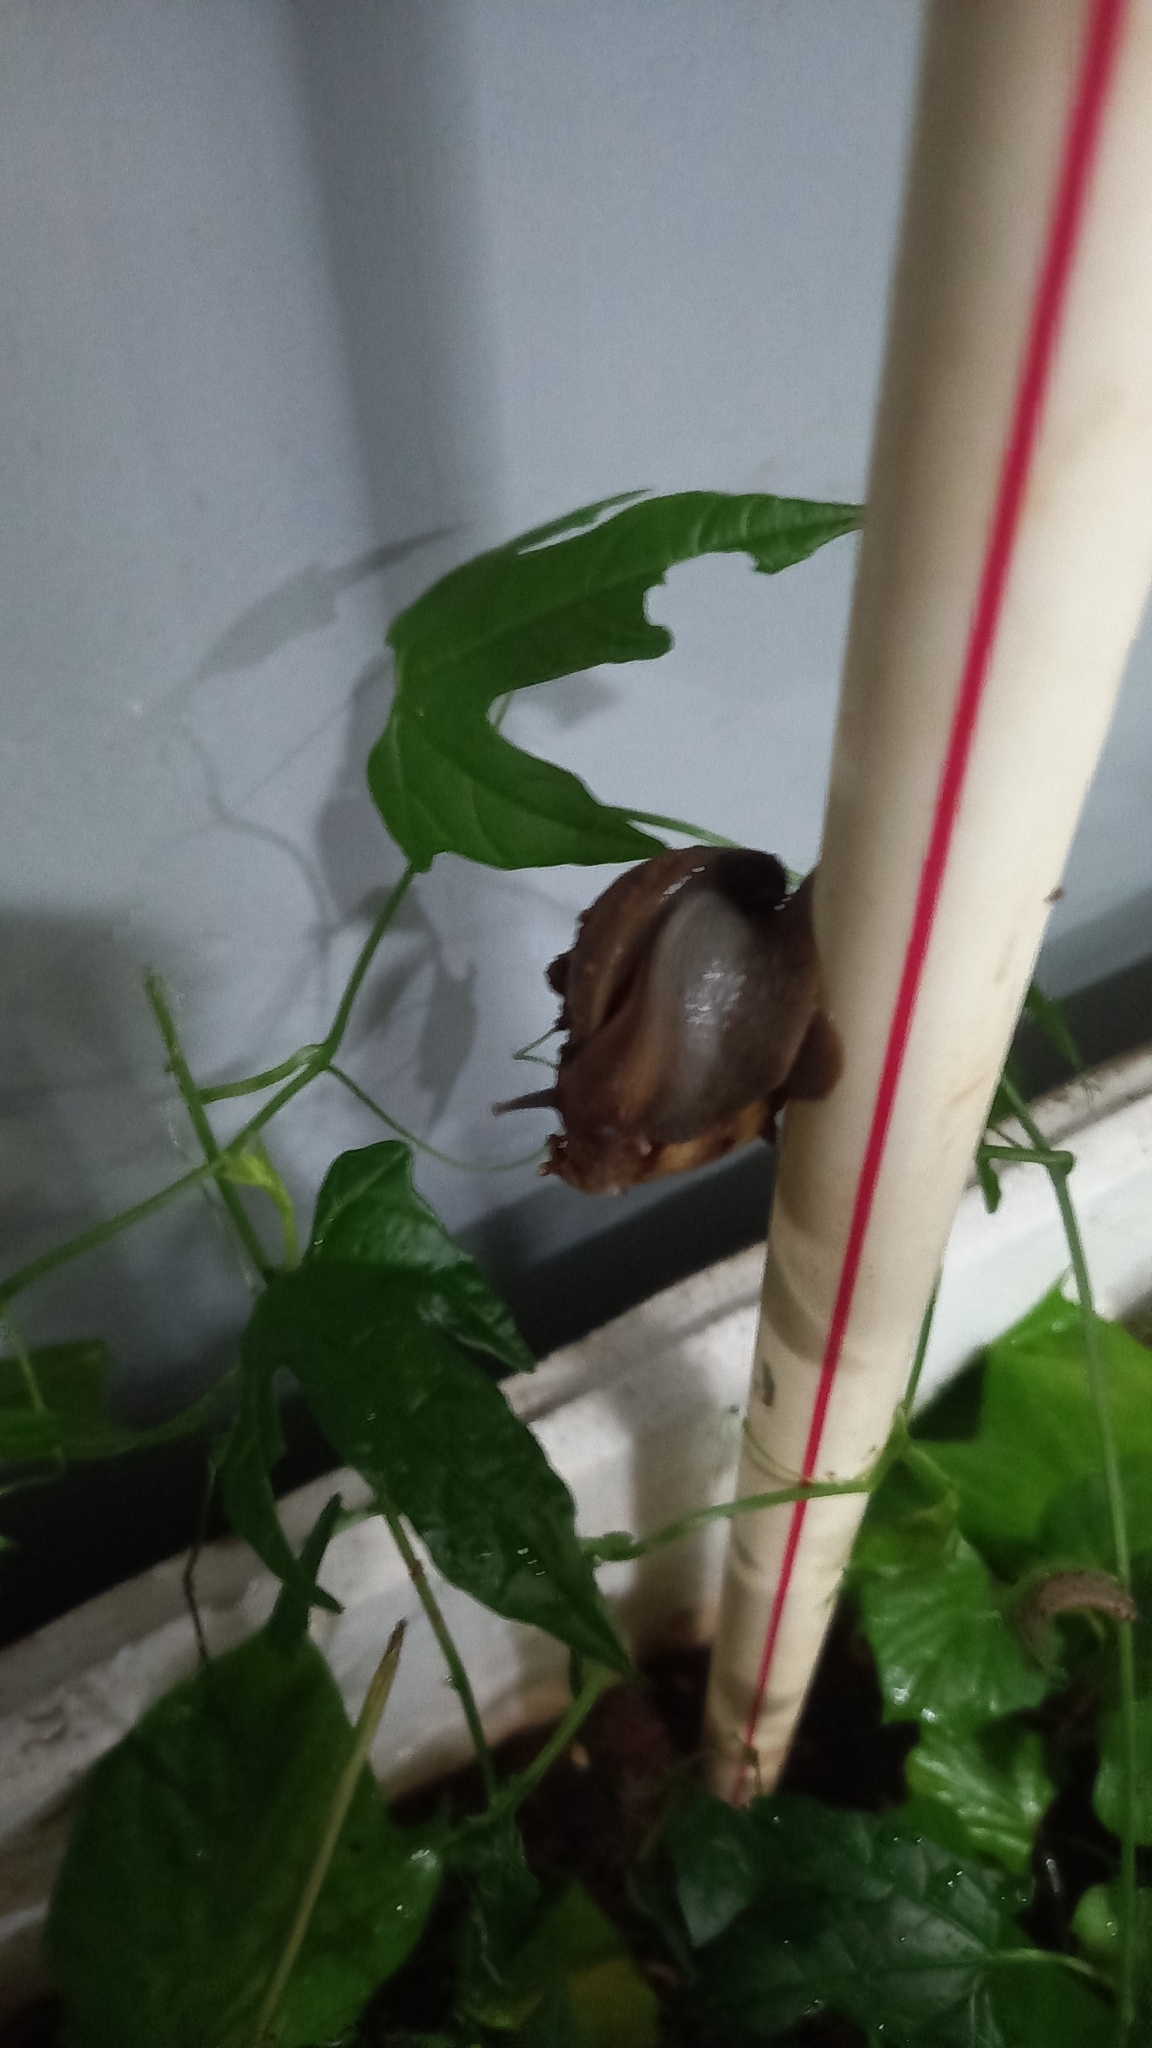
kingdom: Animalia
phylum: Mollusca
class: Gastropoda
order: Stylommatophora
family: Achatinidae
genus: Lissachatina
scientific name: Lissachatina fulica
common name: Giant african snail
